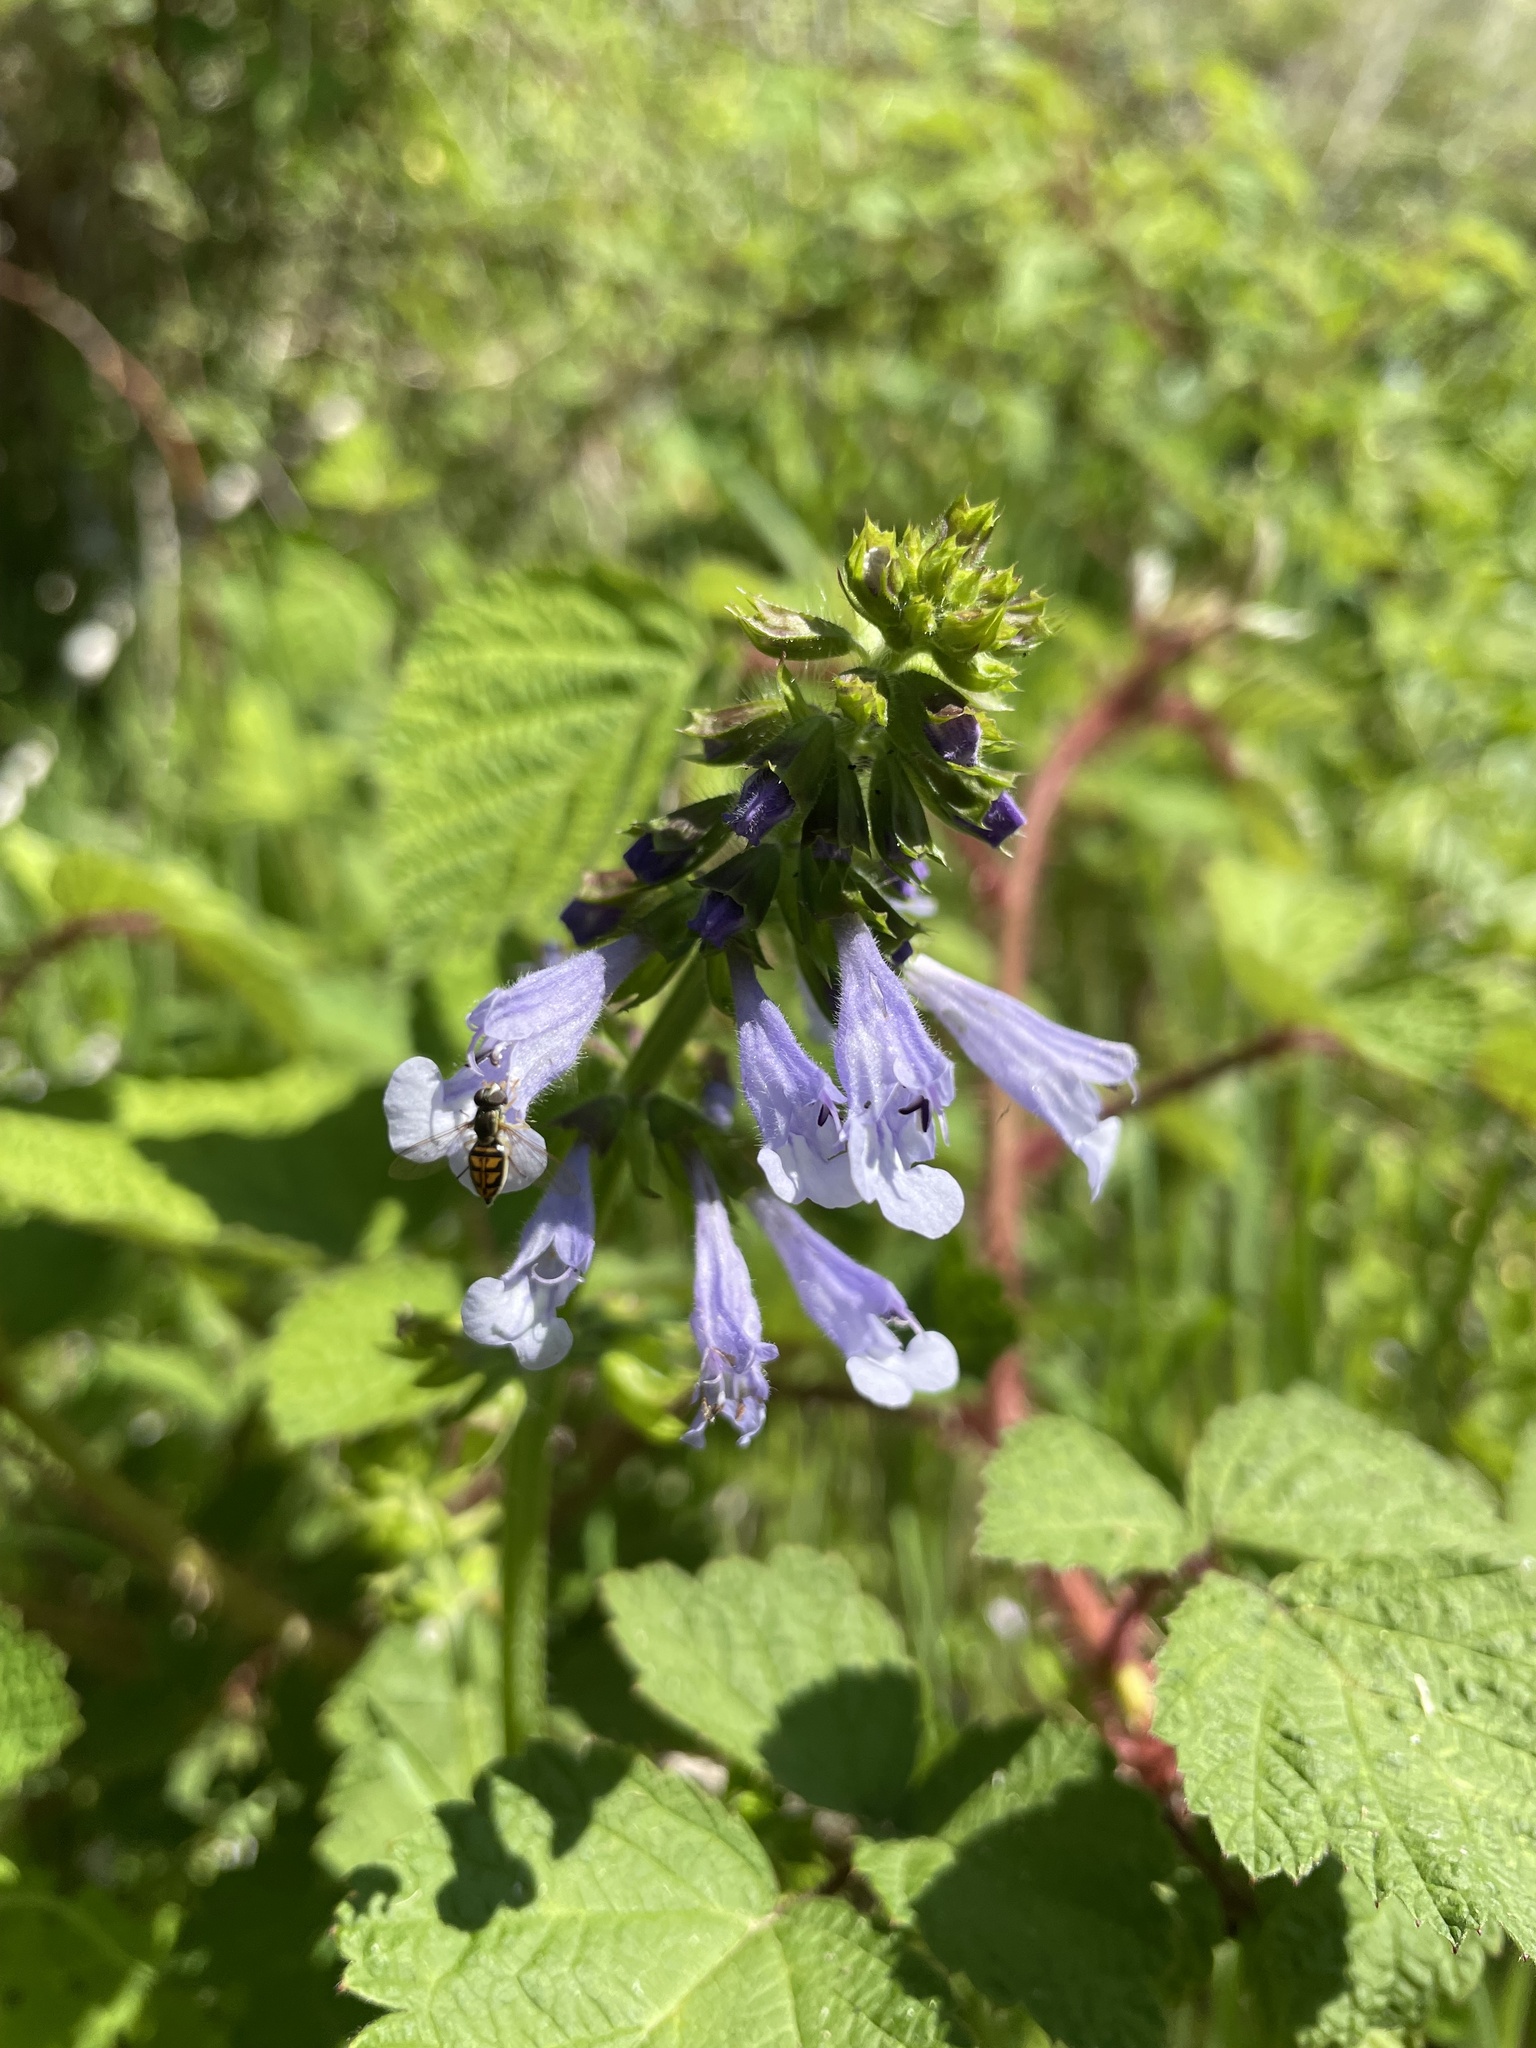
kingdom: Plantae
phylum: Tracheophyta
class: Magnoliopsida
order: Lamiales
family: Lamiaceae
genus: Salvia
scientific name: Salvia lyrata
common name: Cancerweed
